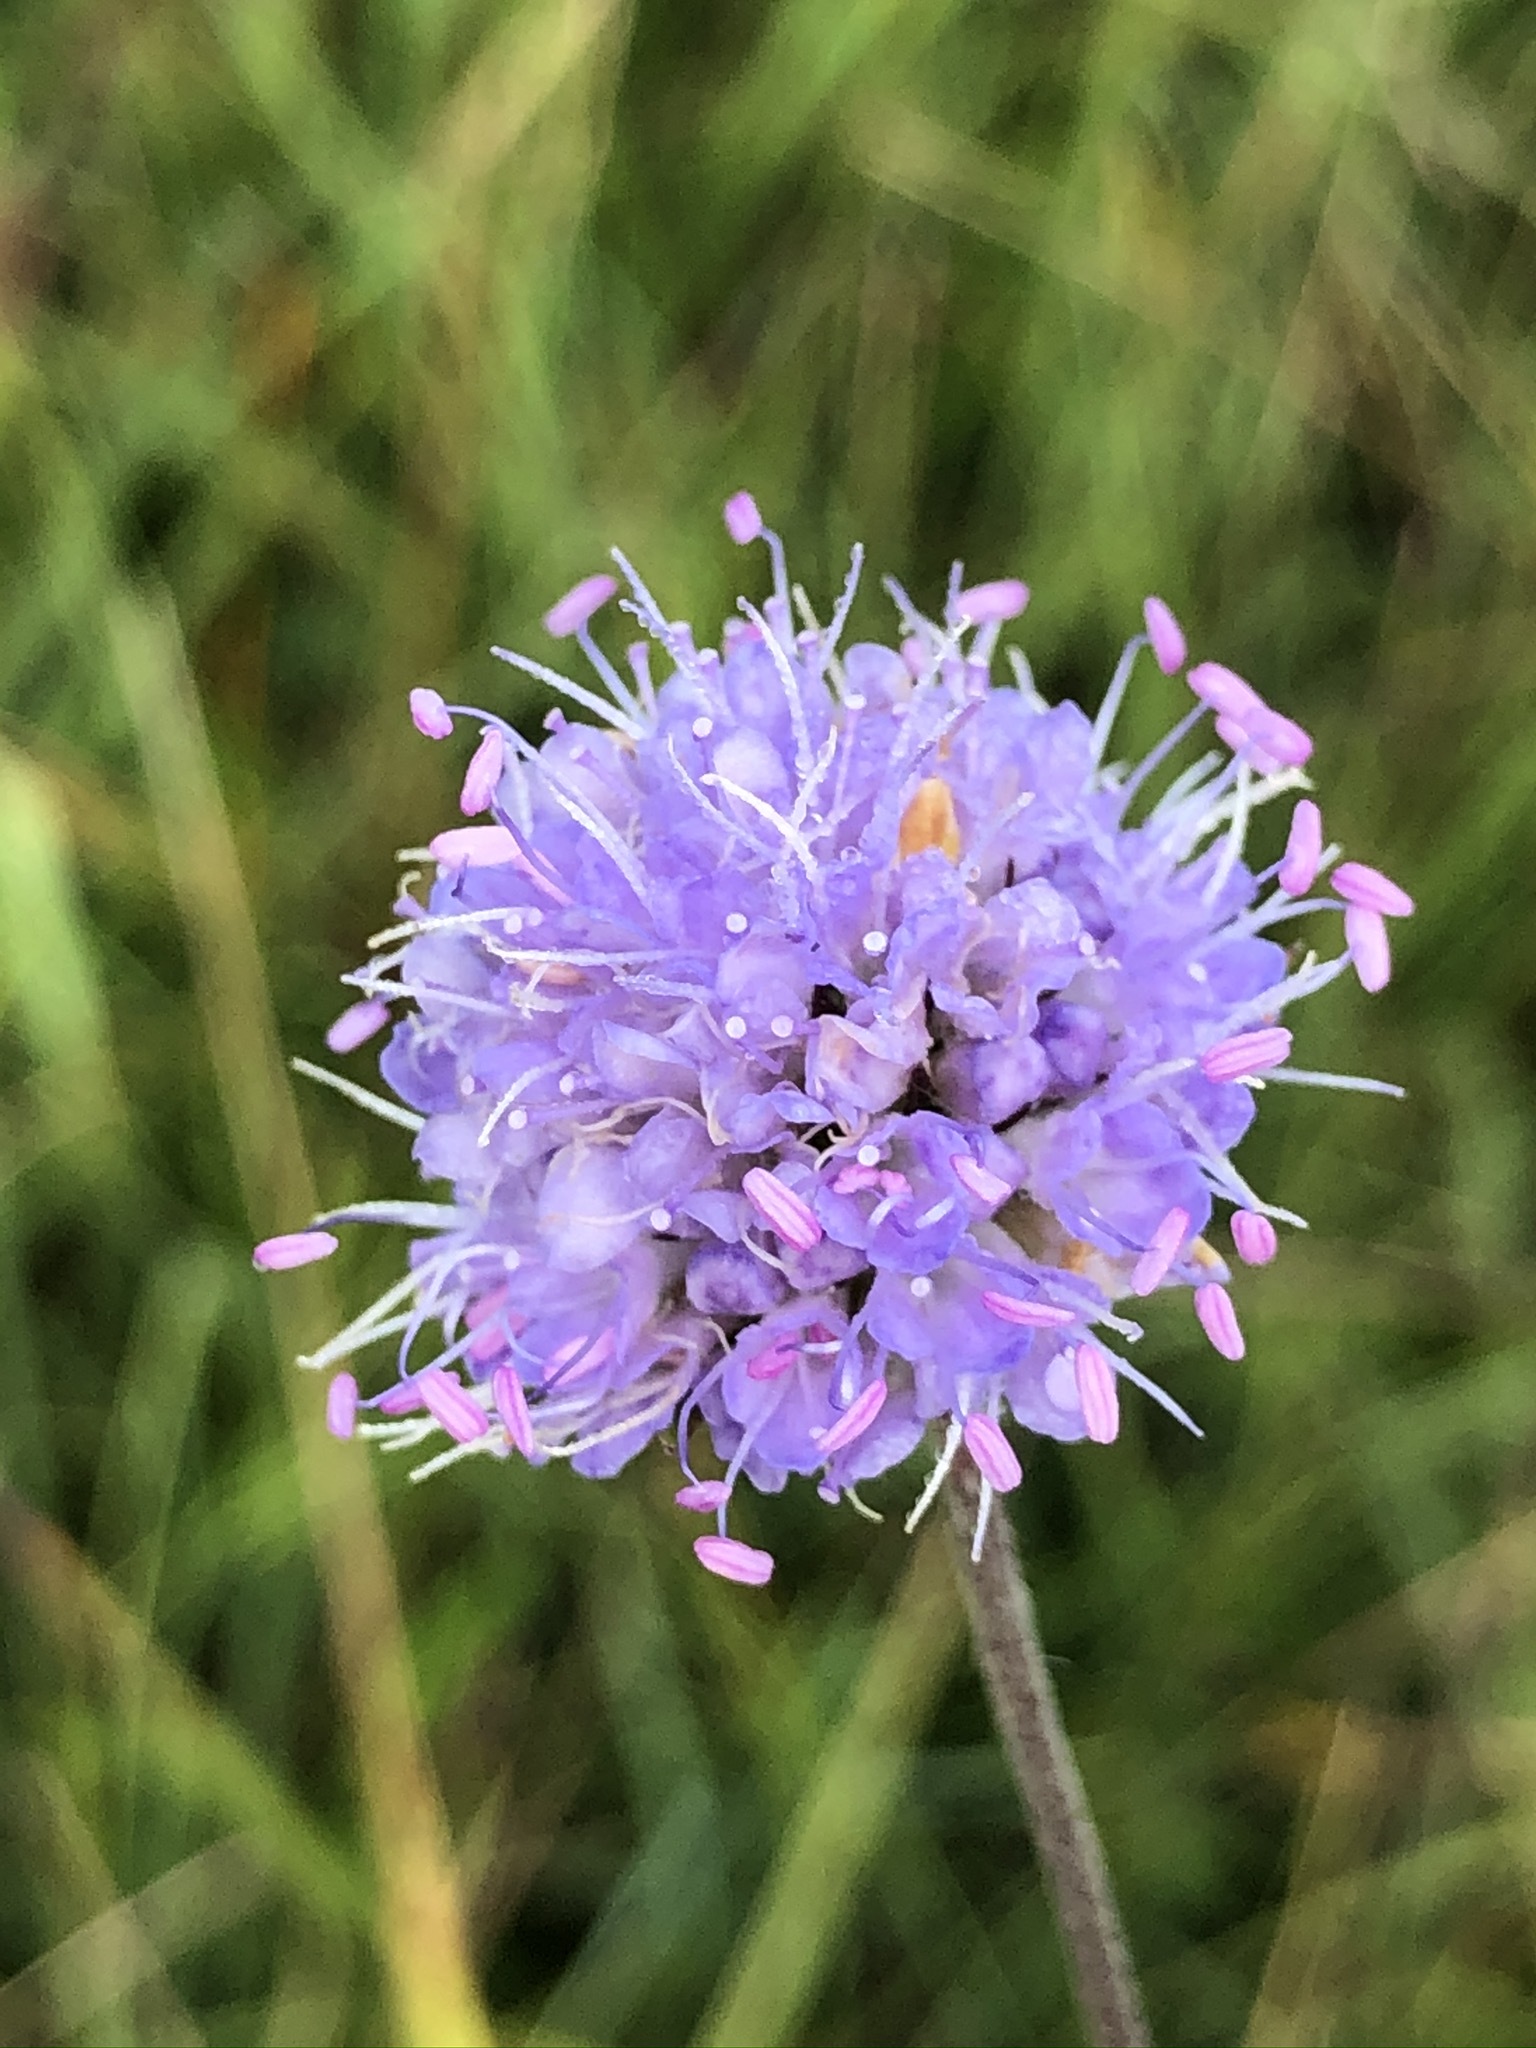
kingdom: Plantae
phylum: Tracheophyta
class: Magnoliopsida
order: Dipsacales
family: Caprifoliaceae
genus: Succisa
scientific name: Succisa pratensis
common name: Devil's-bit
